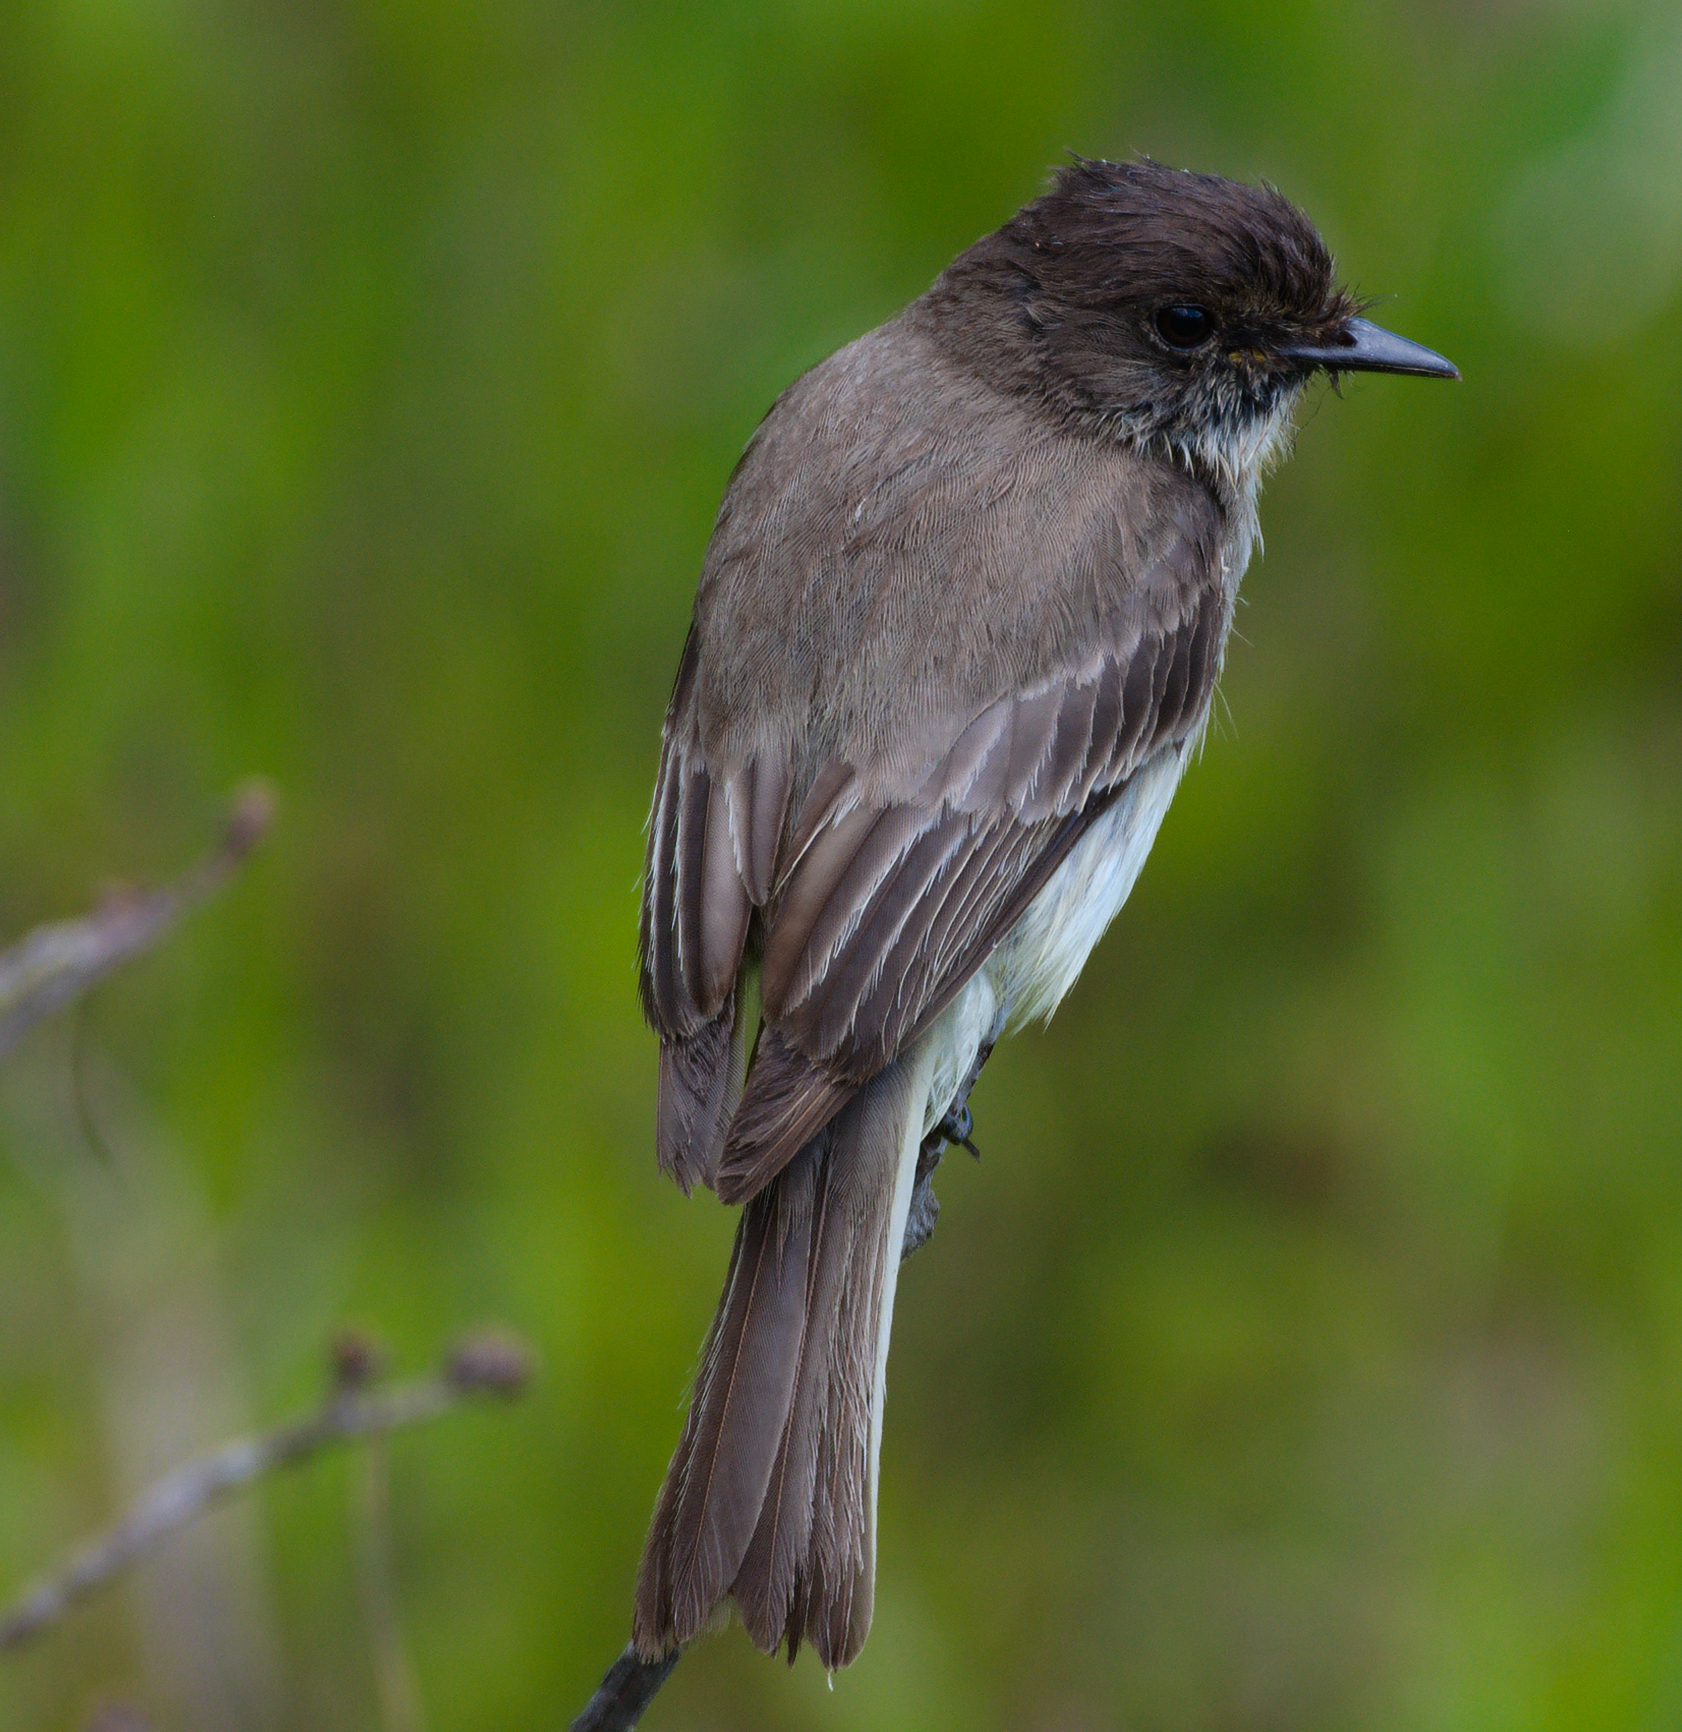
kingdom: Animalia
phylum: Chordata
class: Aves
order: Passeriformes
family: Tyrannidae
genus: Sayornis
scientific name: Sayornis phoebe
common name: Eastern phoebe
